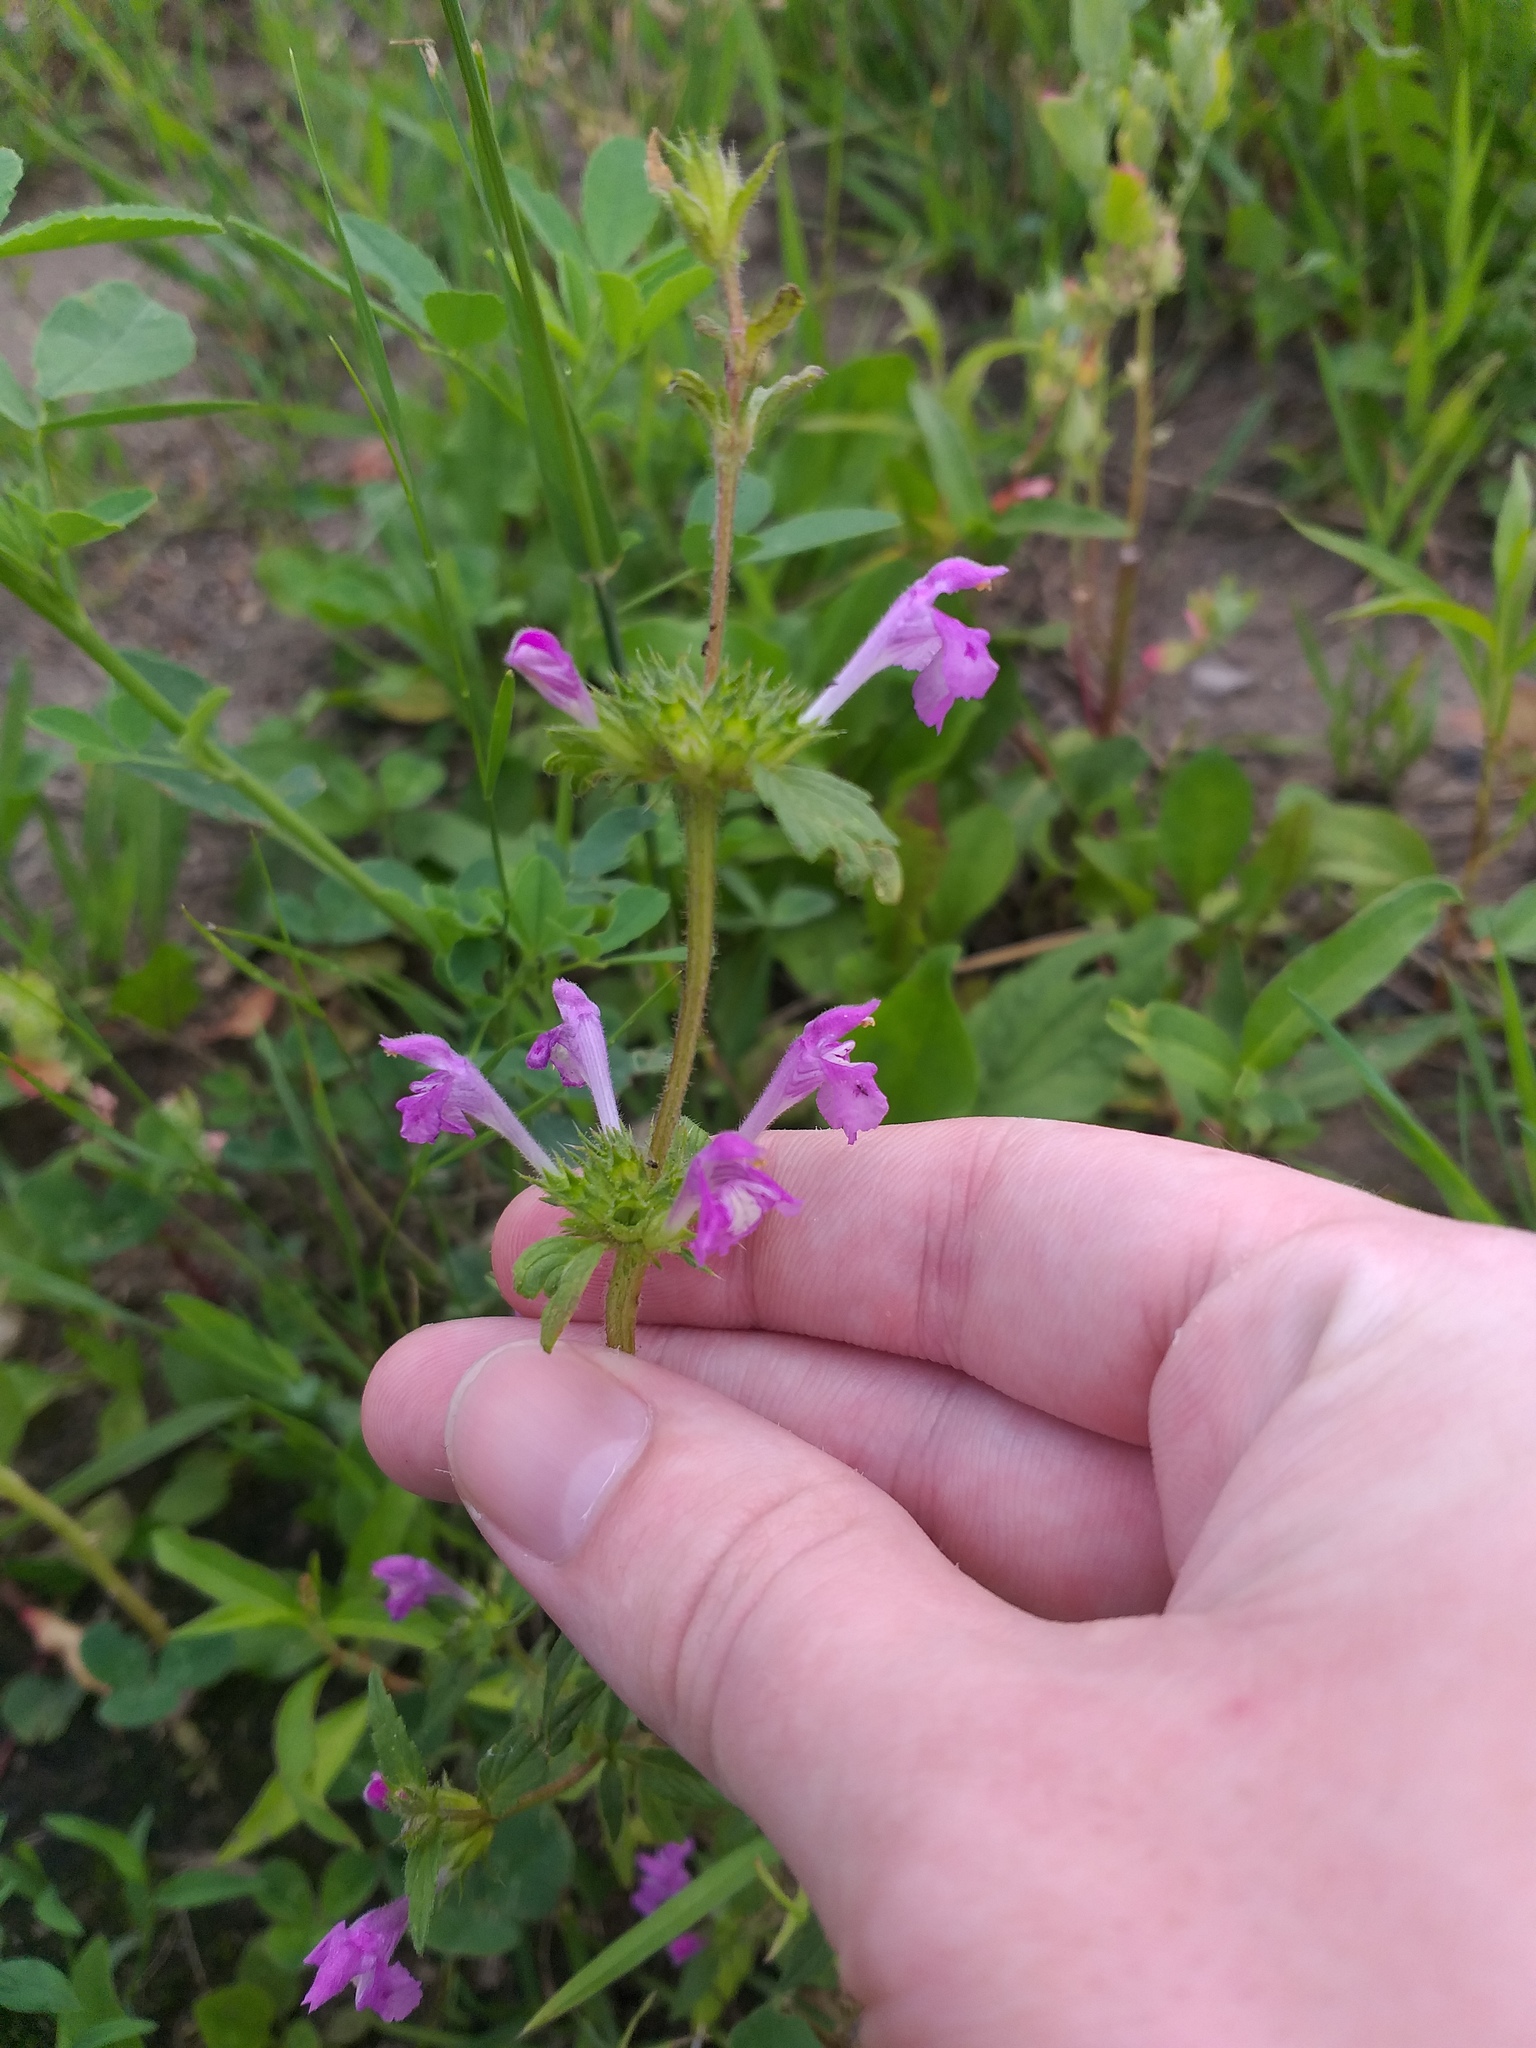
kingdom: Plantae
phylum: Tracheophyta
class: Magnoliopsida
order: Lamiales
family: Lamiaceae
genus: Galeopsis
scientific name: Galeopsis ladanum
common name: Broad-leaved hemp-nettle
